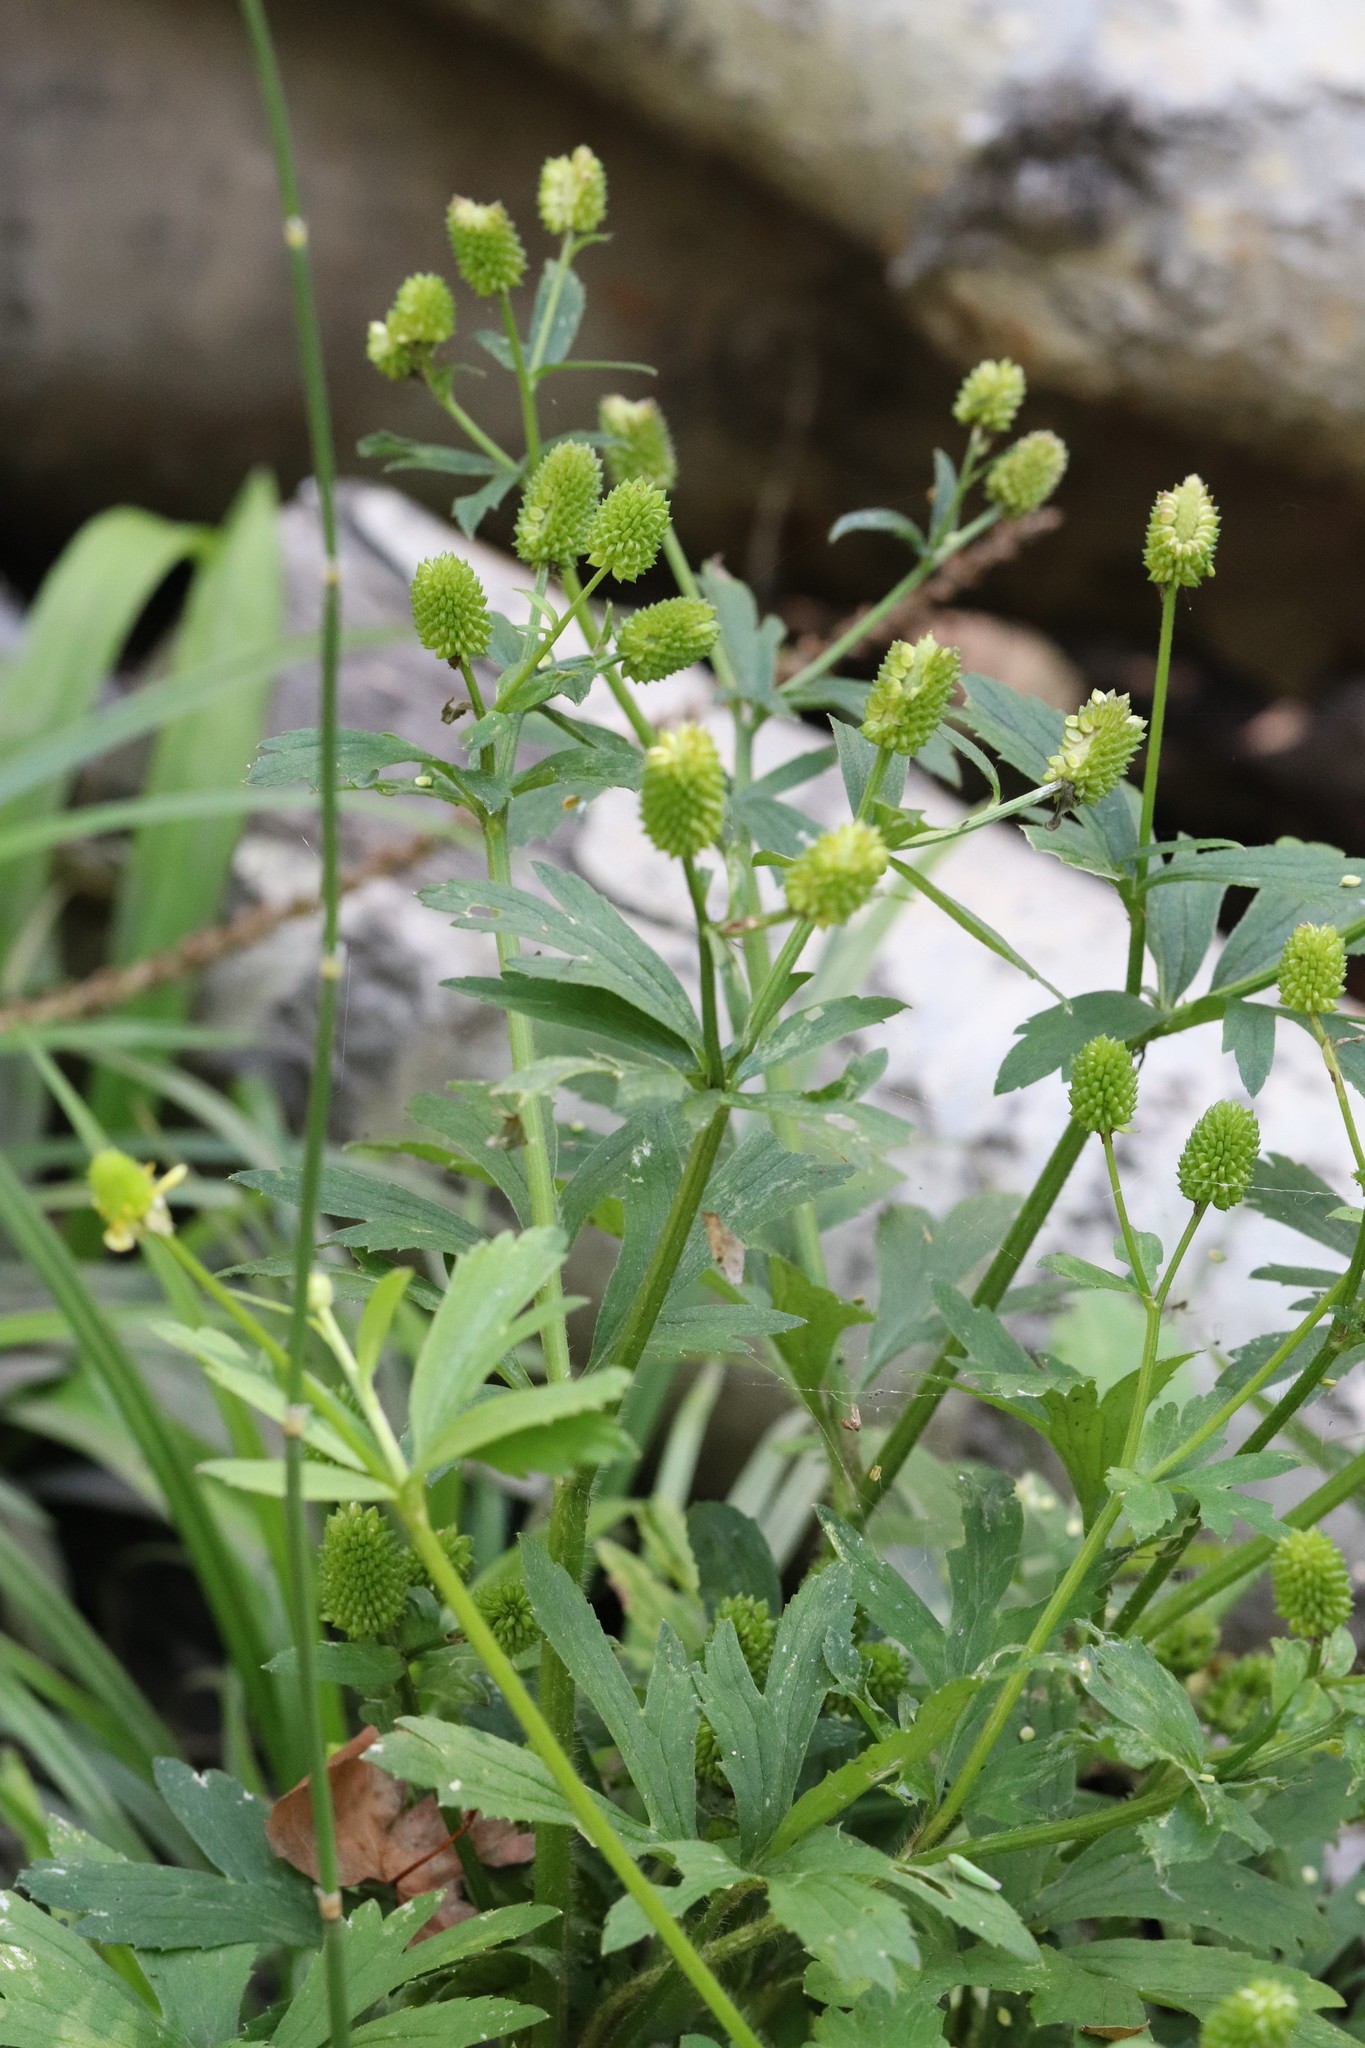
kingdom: Plantae
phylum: Tracheophyta
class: Magnoliopsida
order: Ranunculales
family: Ranunculaceae
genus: Ranunculus
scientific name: Ranunculus chinensis
